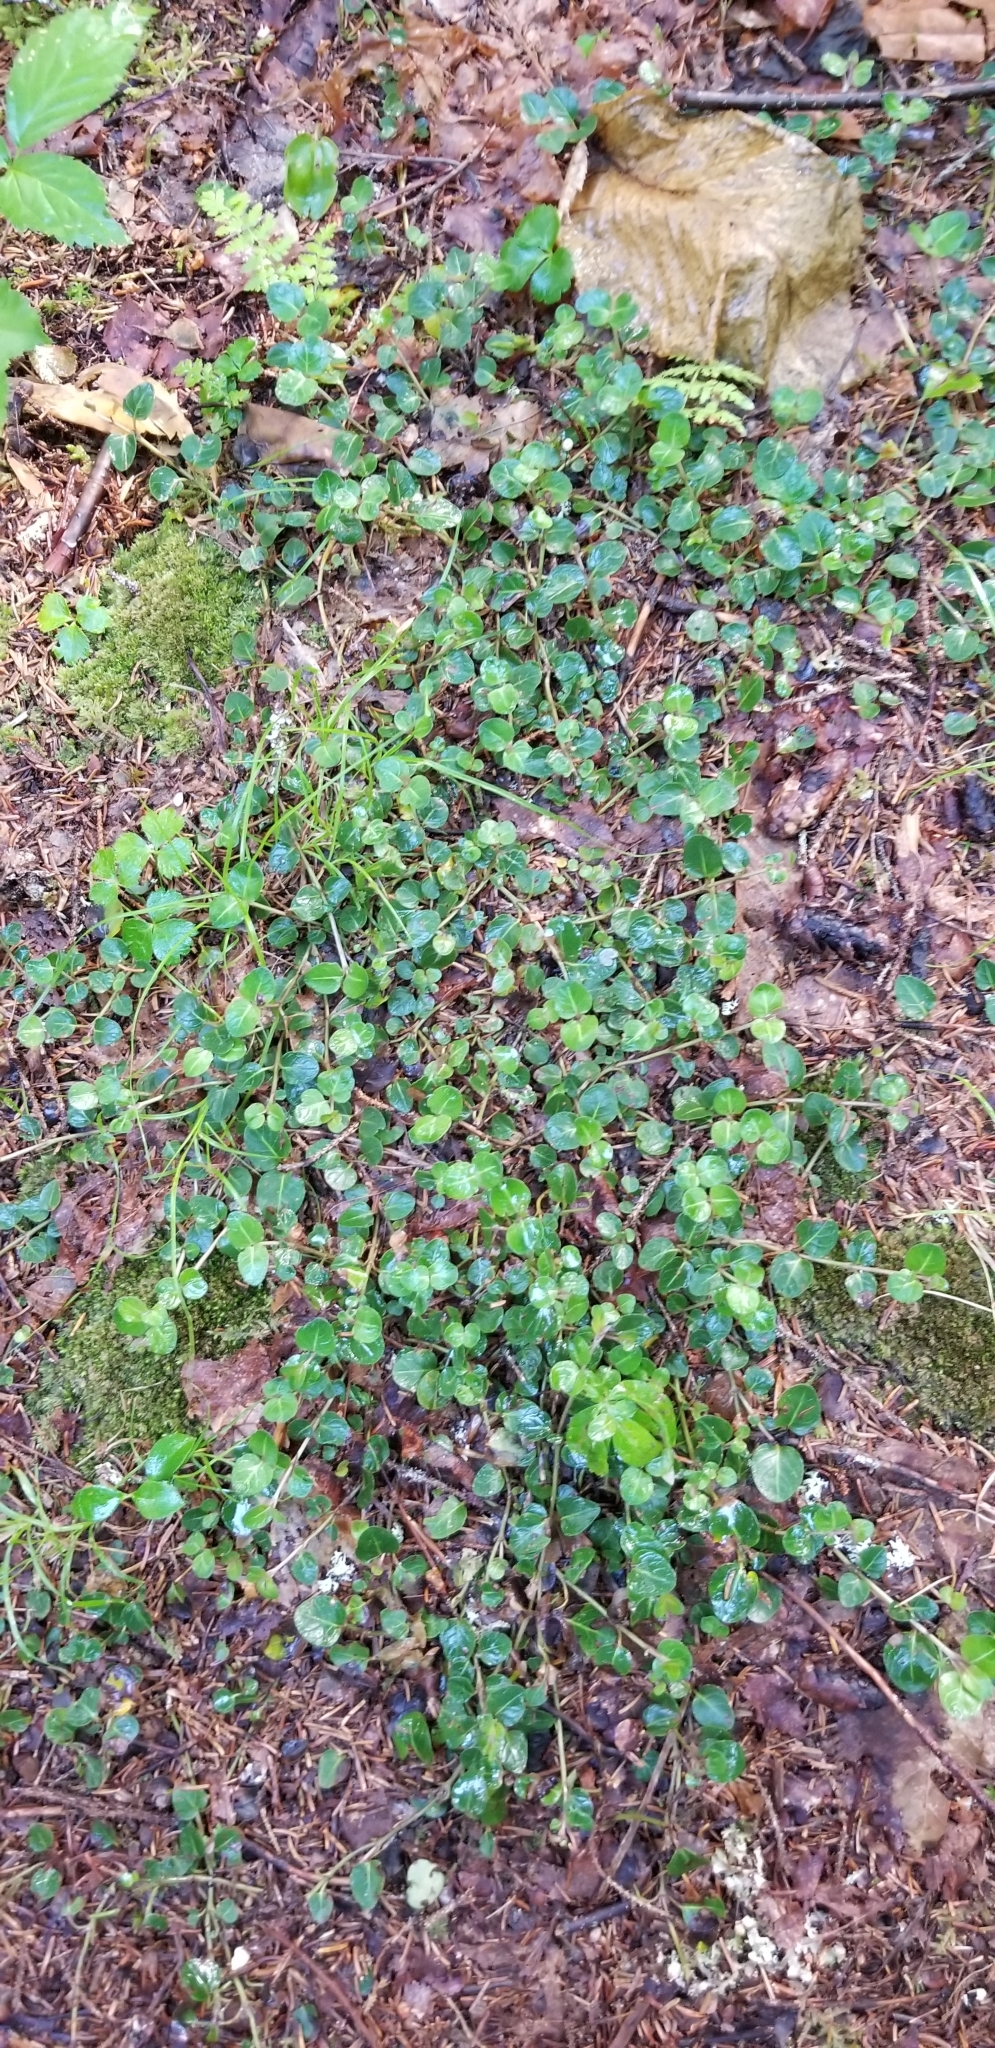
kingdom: Plantae
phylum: Tracheophyta
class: Magnoliopsida
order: Gentianales
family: Rubiaceae
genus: Mitchella
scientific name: Mitchella repens
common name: Partridge-berry
